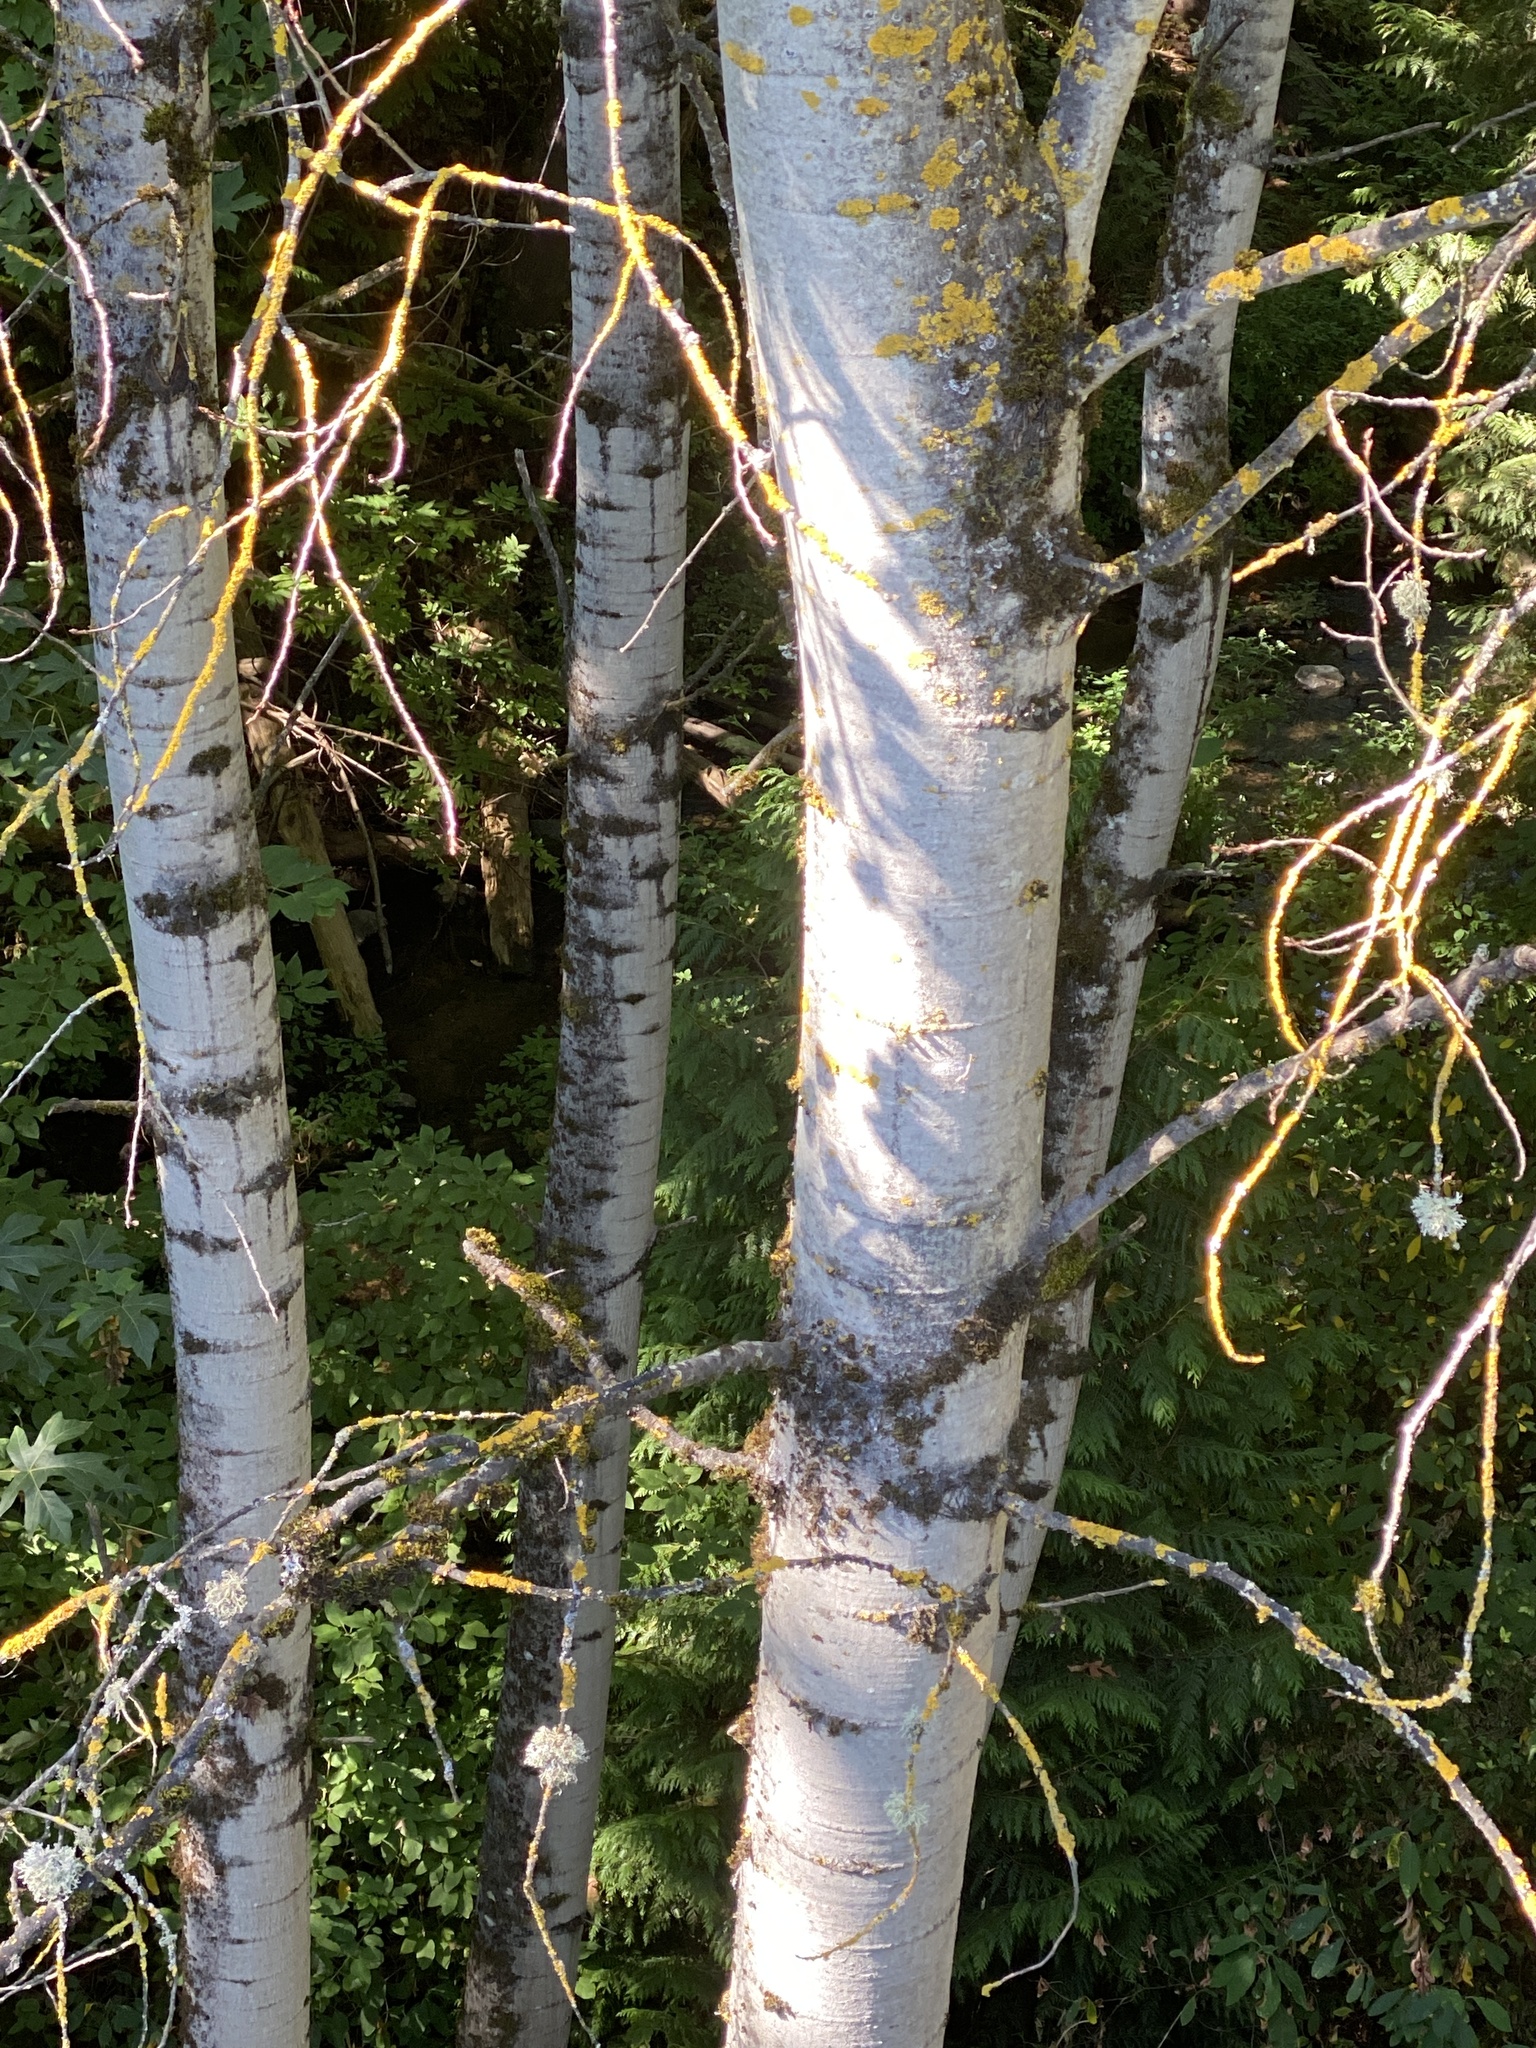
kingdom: Plantae
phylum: Tracheophyta
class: Magnoliopsida
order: Malpighiales
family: Salicaceae
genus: Populus
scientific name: Populus tremuloides
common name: Quaking aspen
